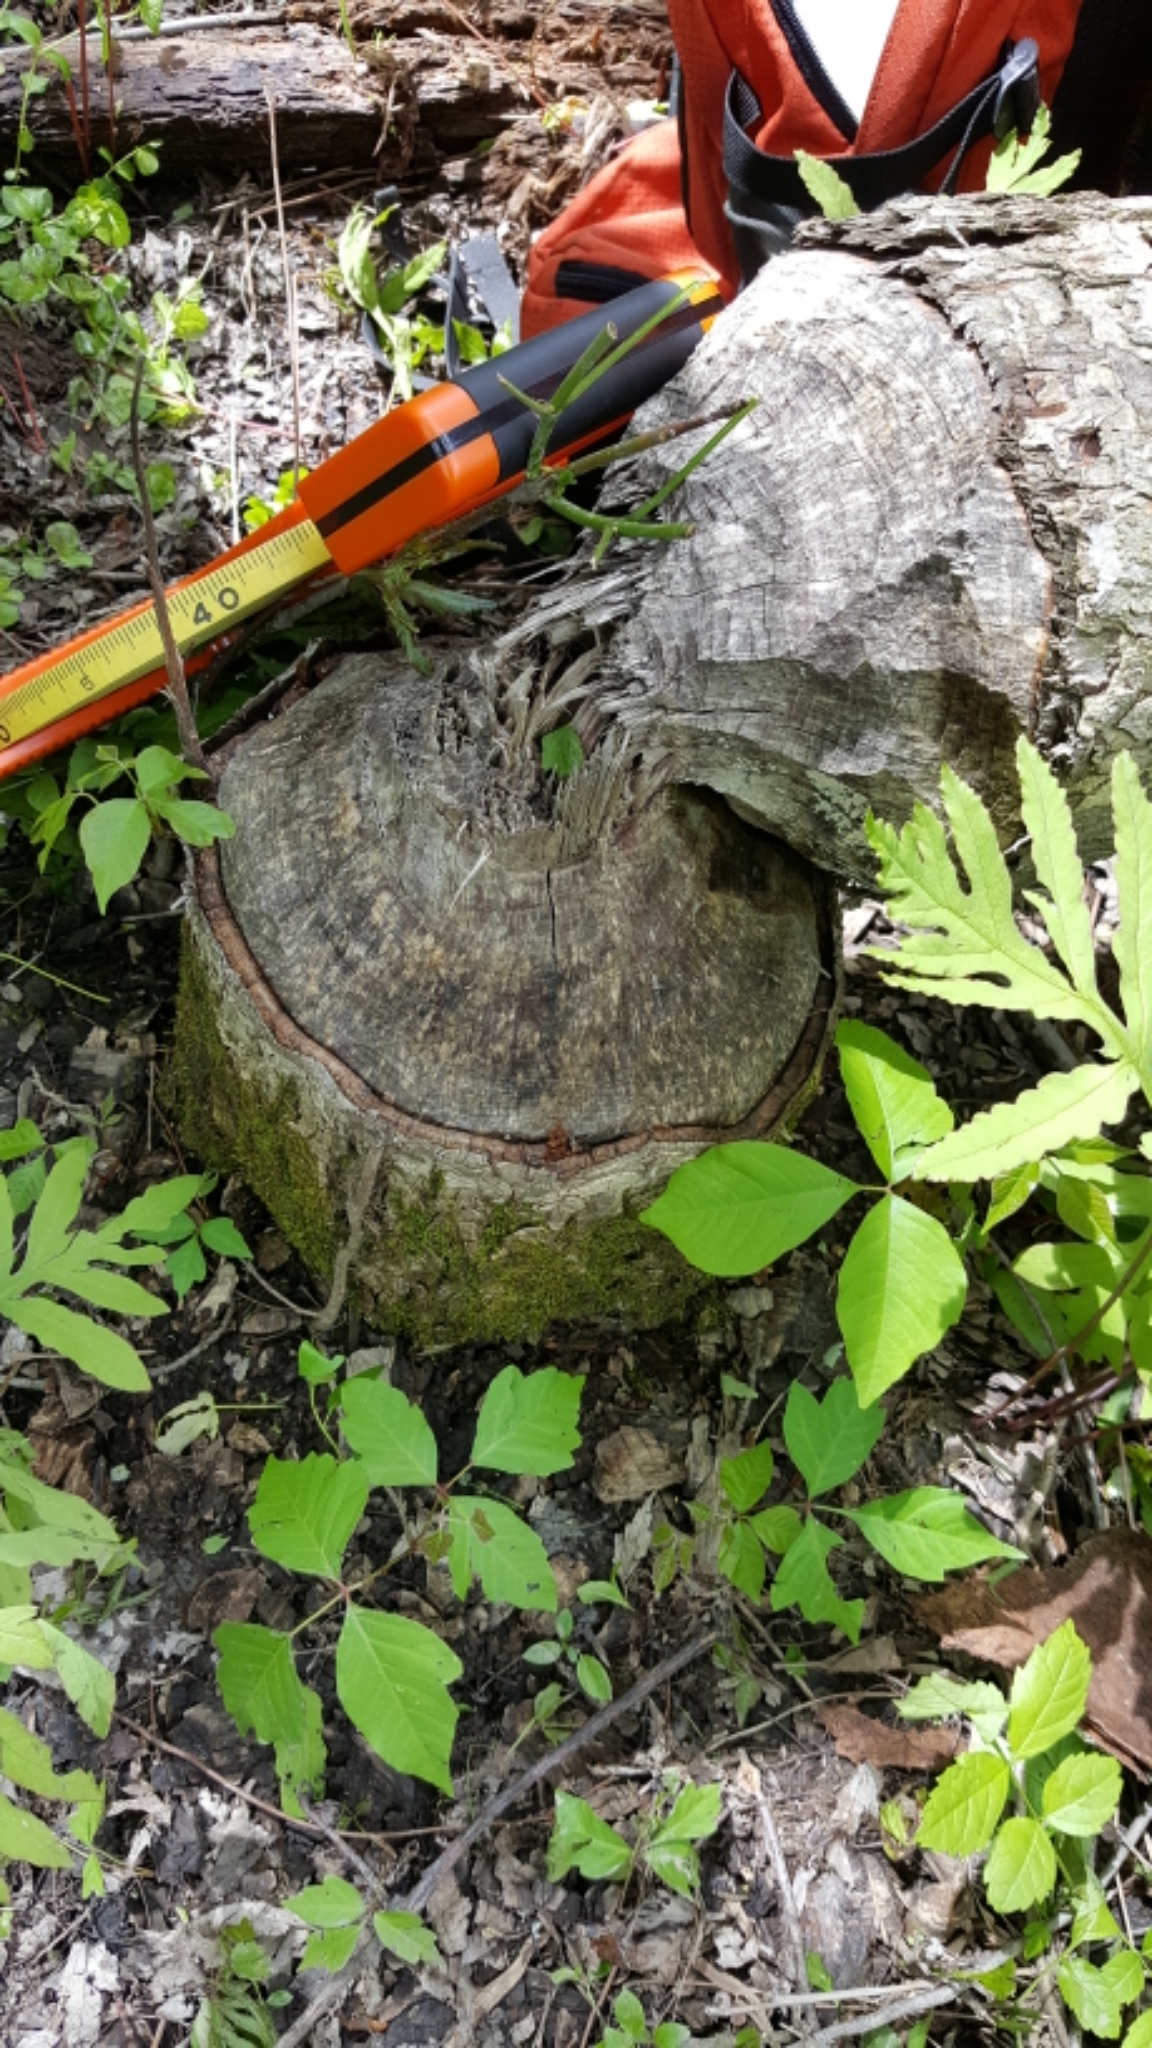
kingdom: Animalia
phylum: Chordata
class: Mammalia
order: Rodentia
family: Castoridae
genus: Castor
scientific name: Castor canadensis
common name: American beaver
